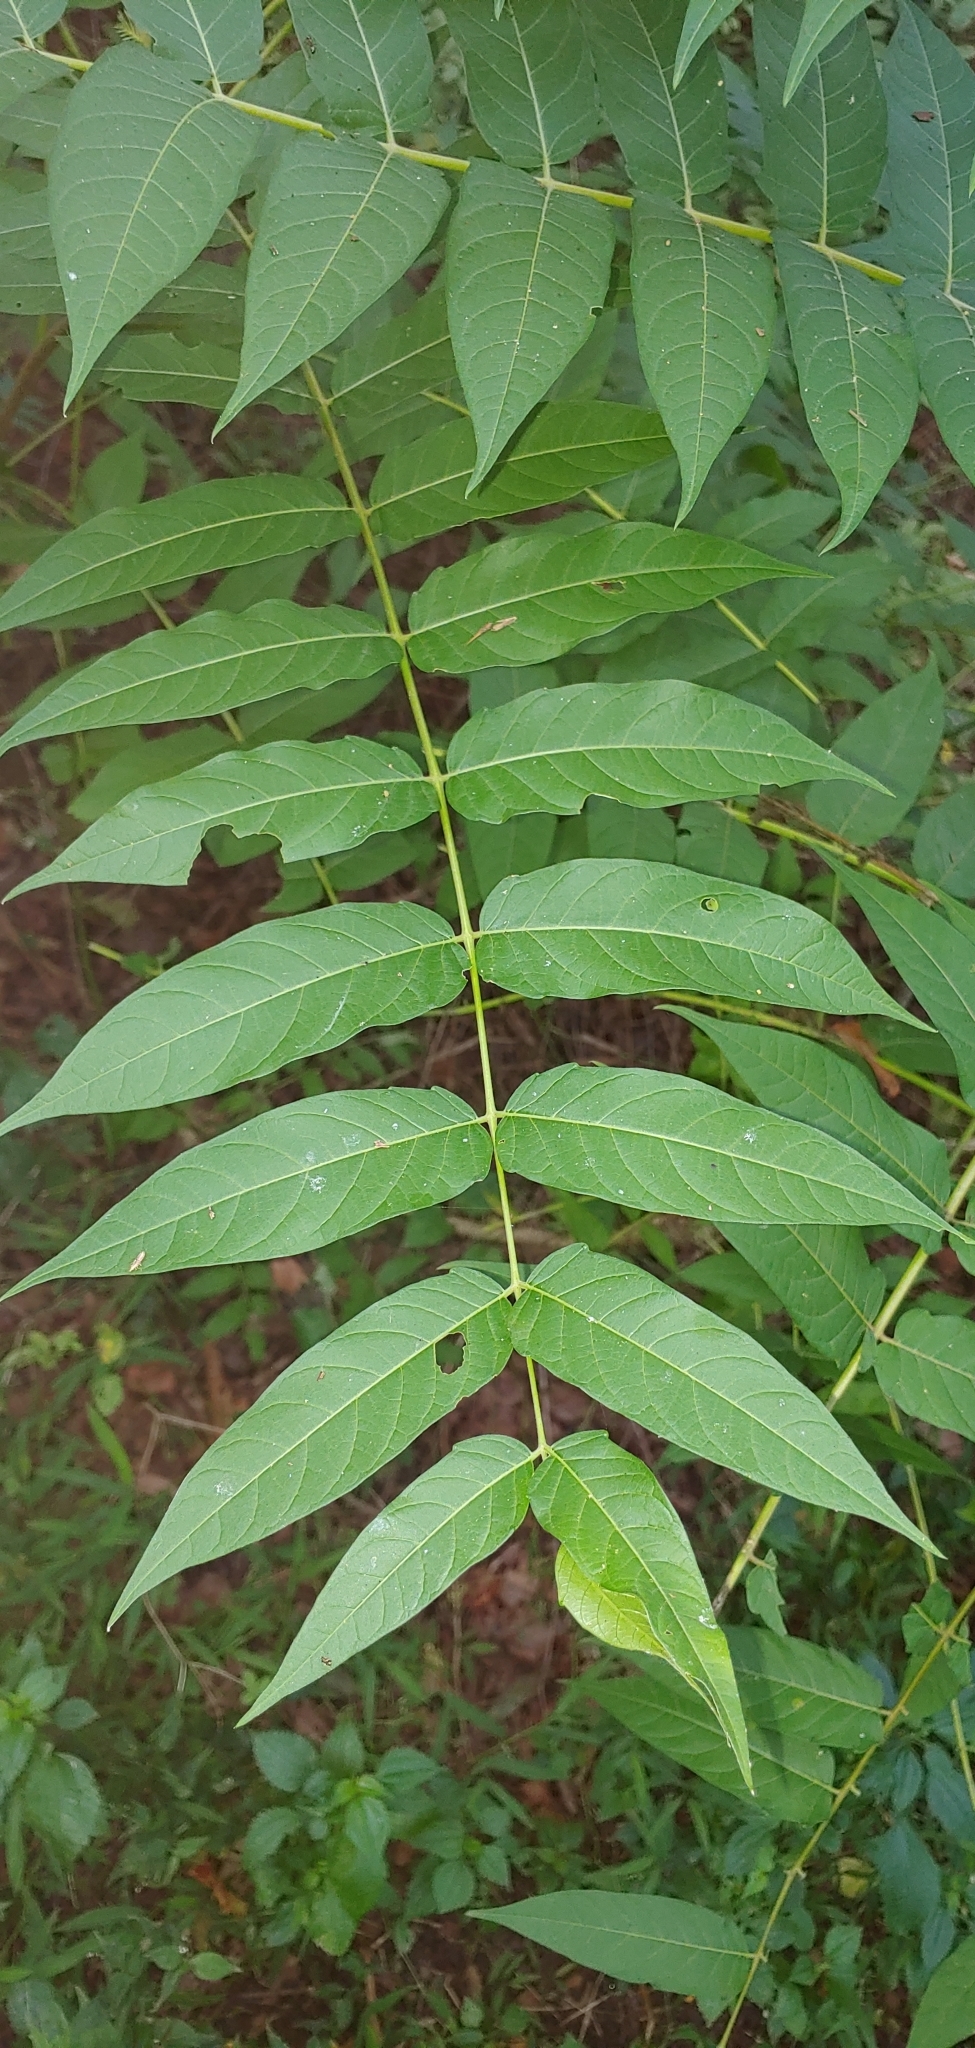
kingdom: Plantae
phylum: Tracheophyta
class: Magnoliopsida
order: Sapindales
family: Simaroubaceae
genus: Ailanthus
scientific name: Ailanthus altissima
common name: Tree-of-heaven
